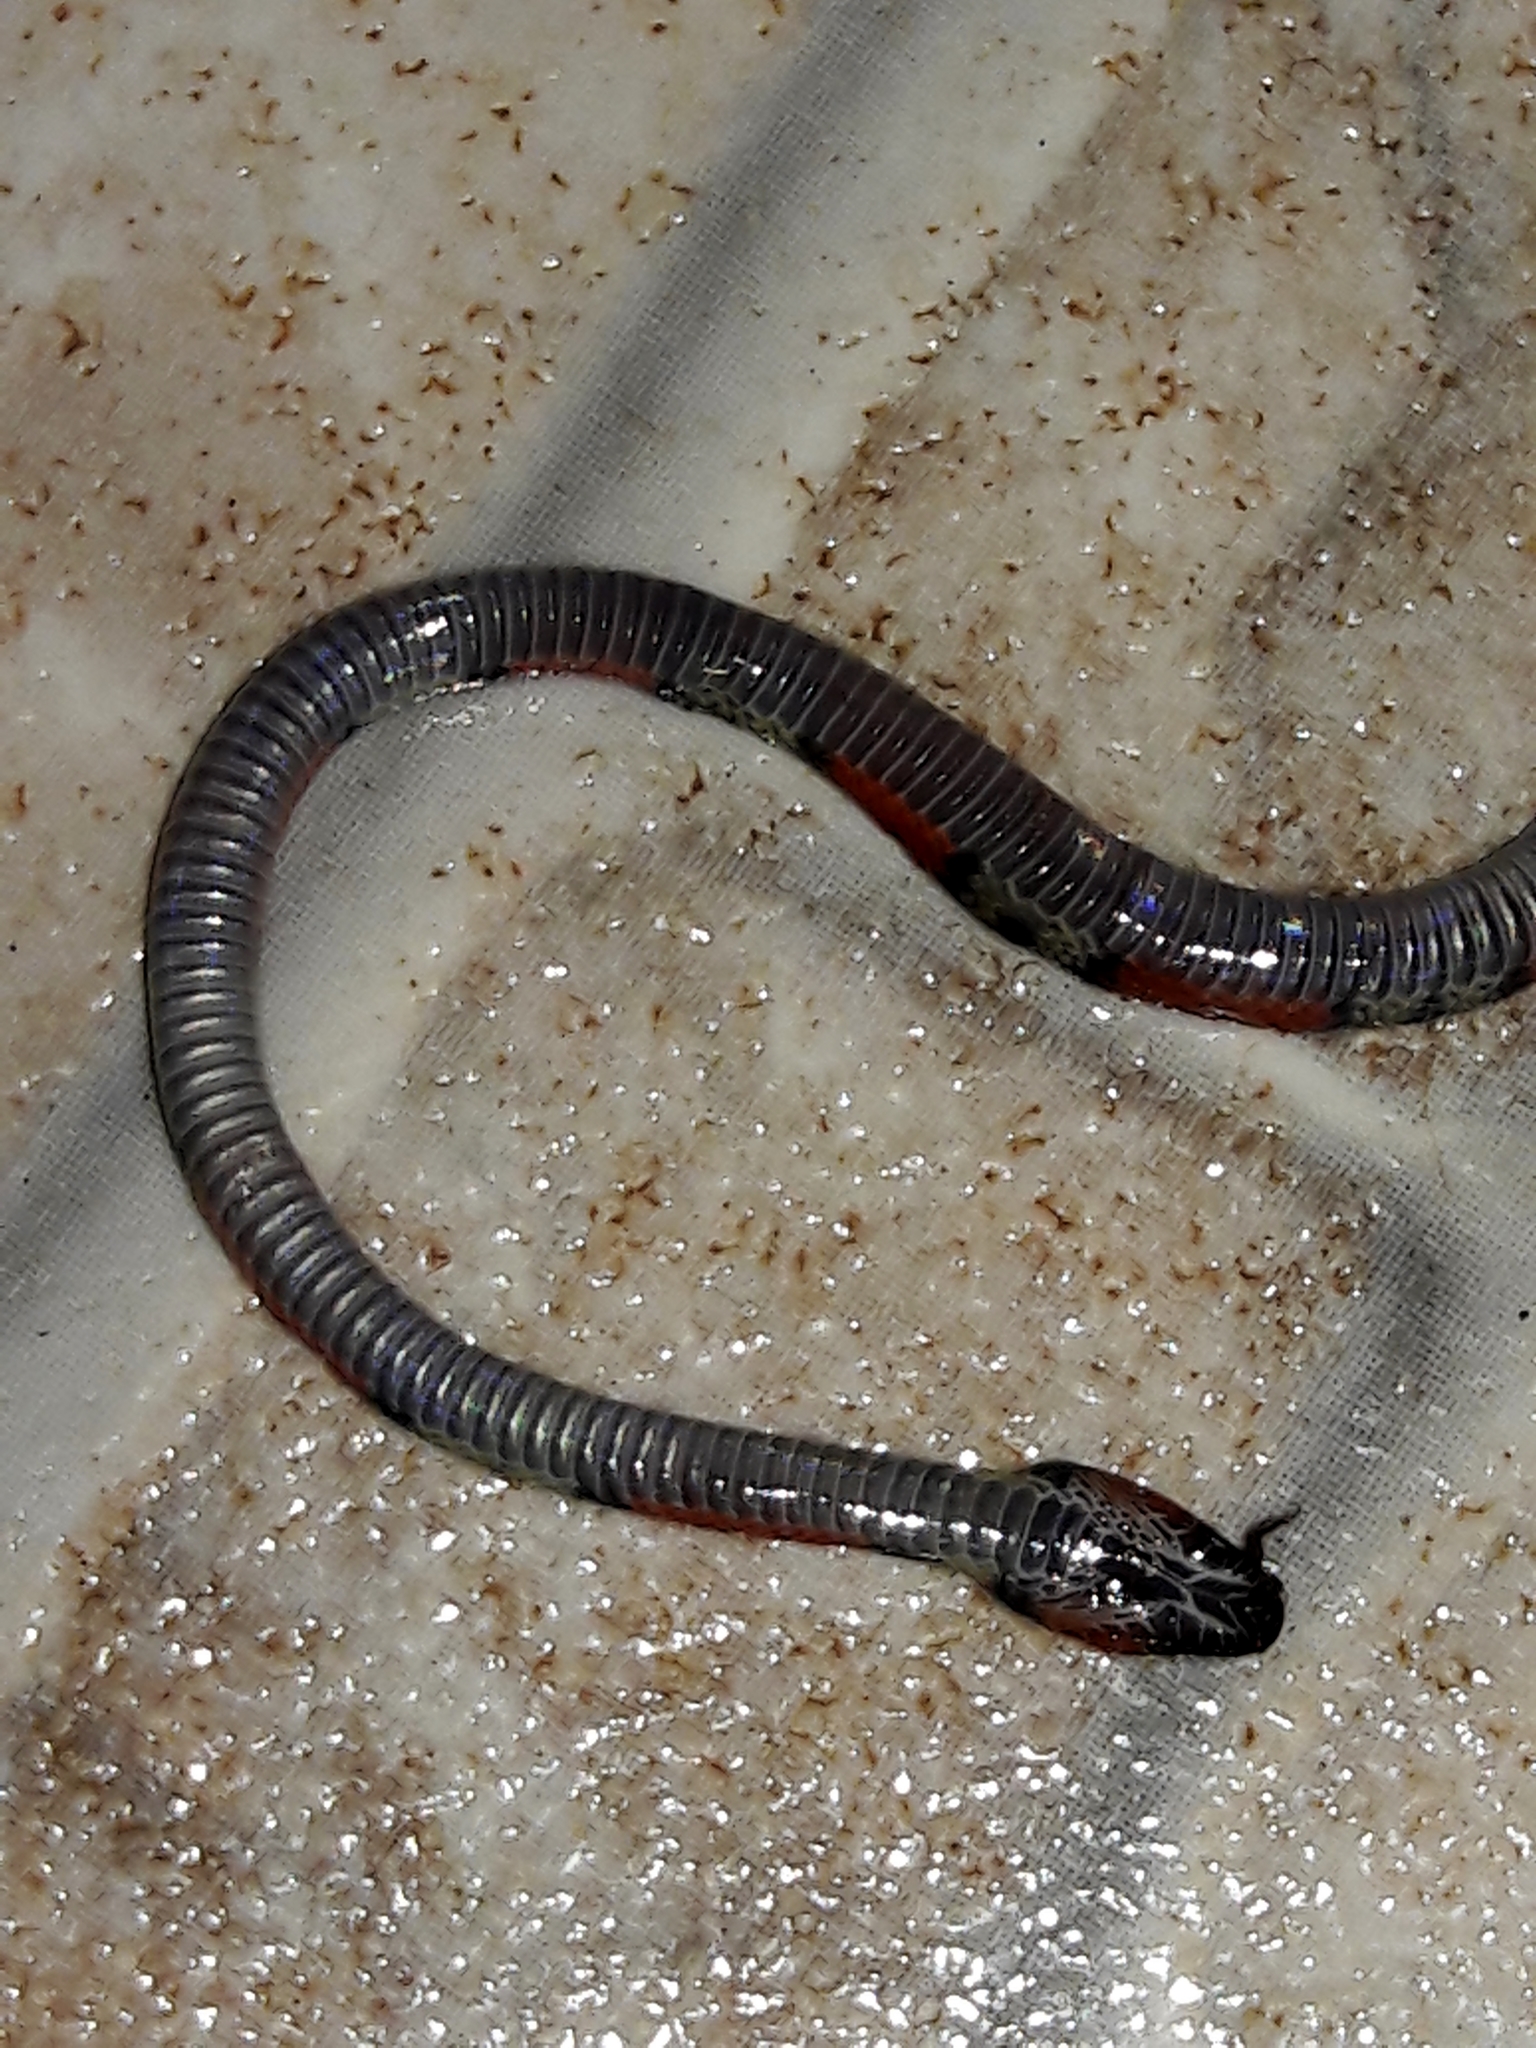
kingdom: Animalia
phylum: Chordata
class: Squamata
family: Colubridae
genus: Oxyrhopus
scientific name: Oxyrhopus guibei
